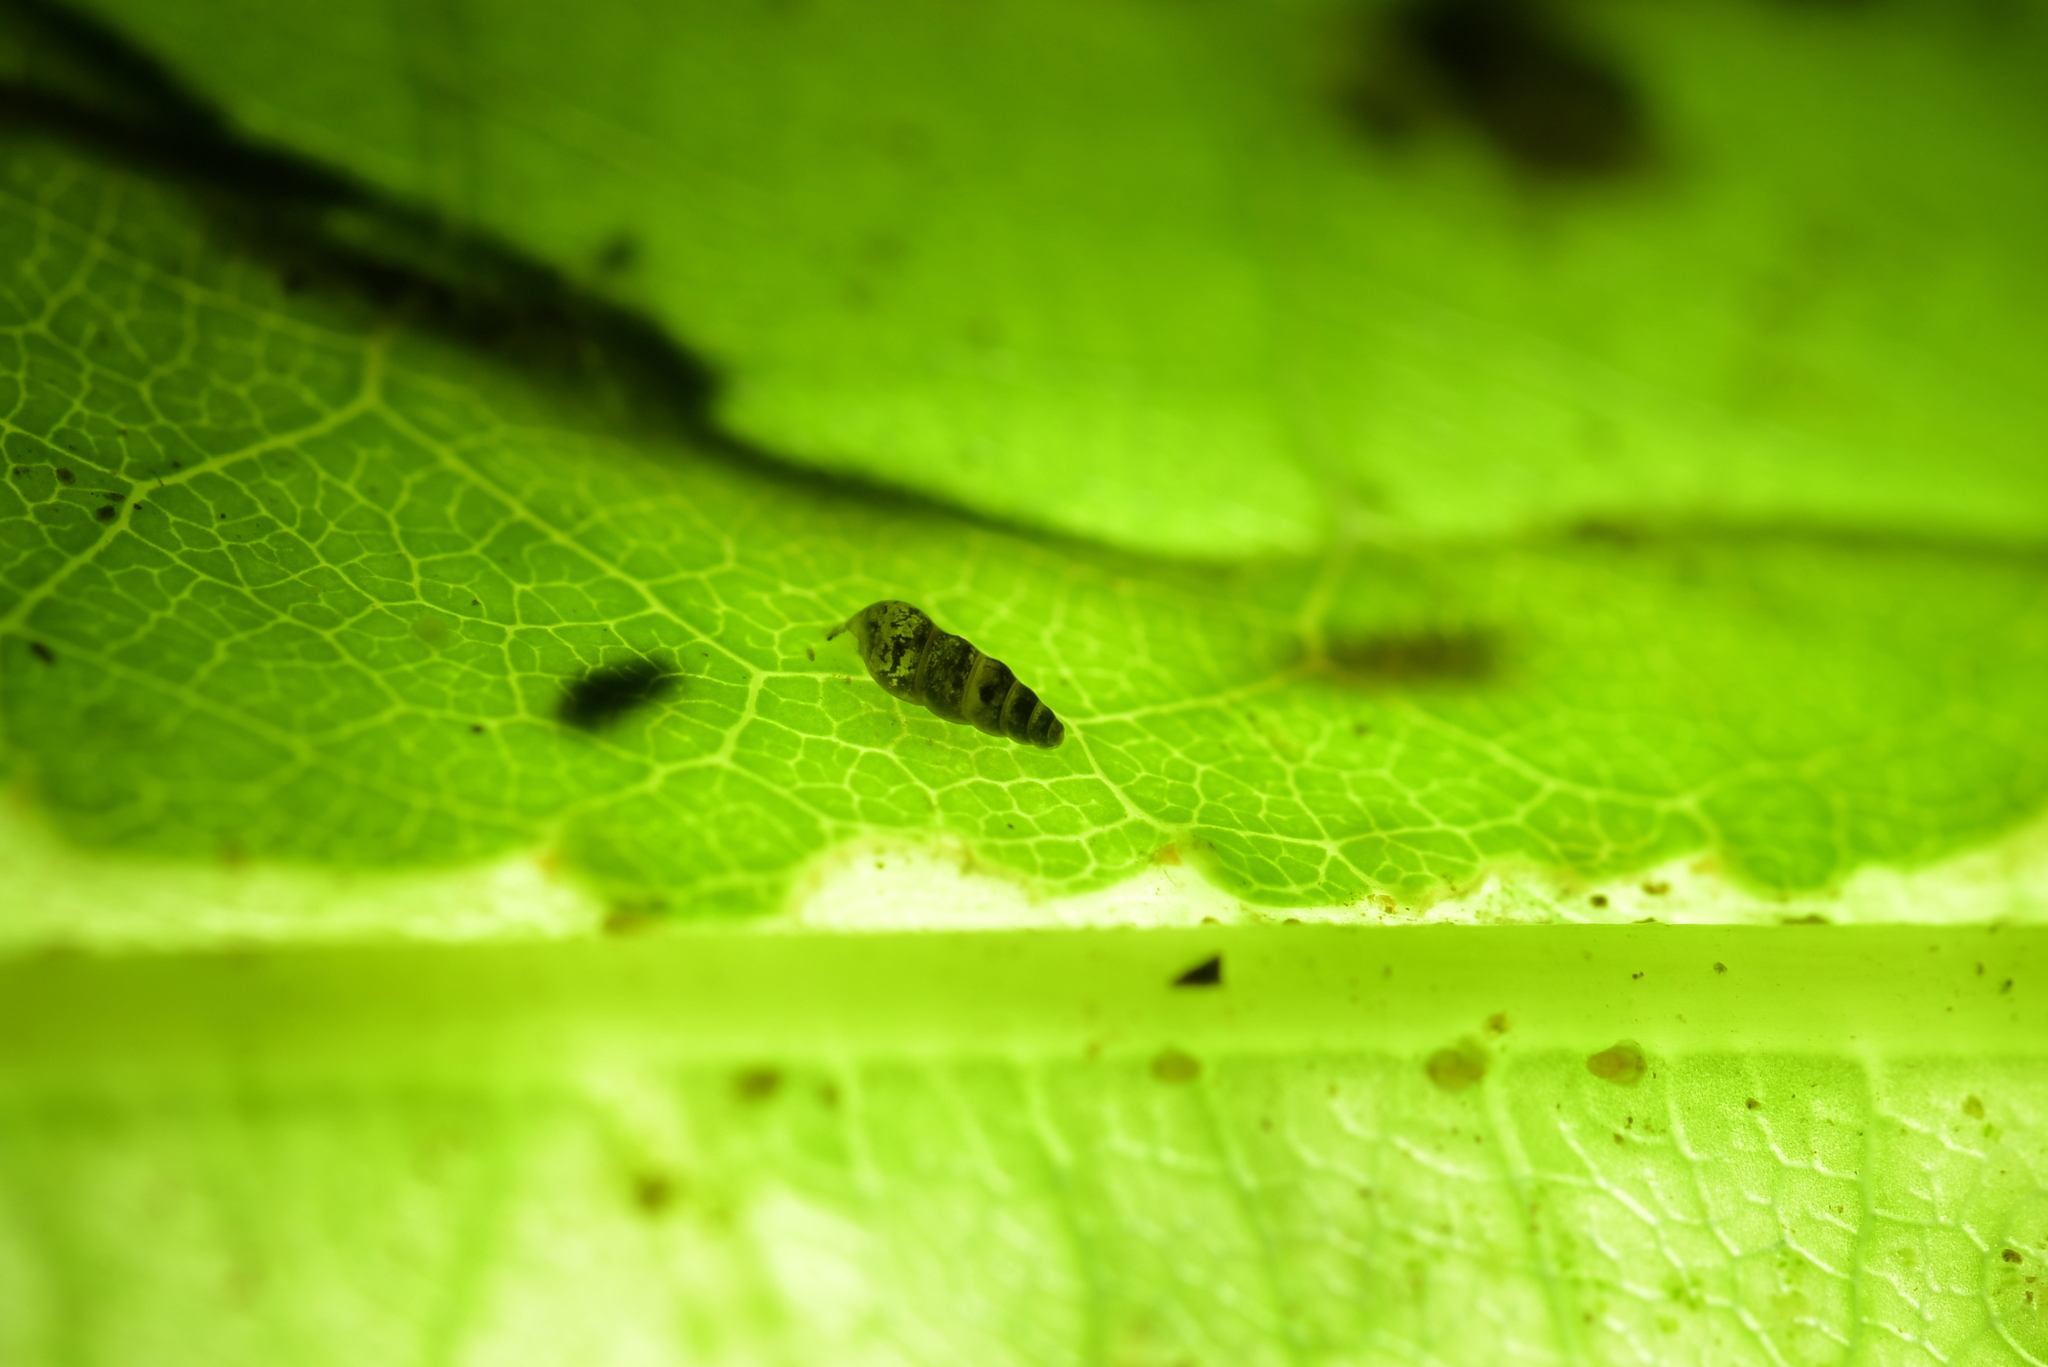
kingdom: Animalia
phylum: Mollusca
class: Gastropoda
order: Littorinimorpha
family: Tateidae
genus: Potamopyrgus
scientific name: Potamopyrgus oppidanus
